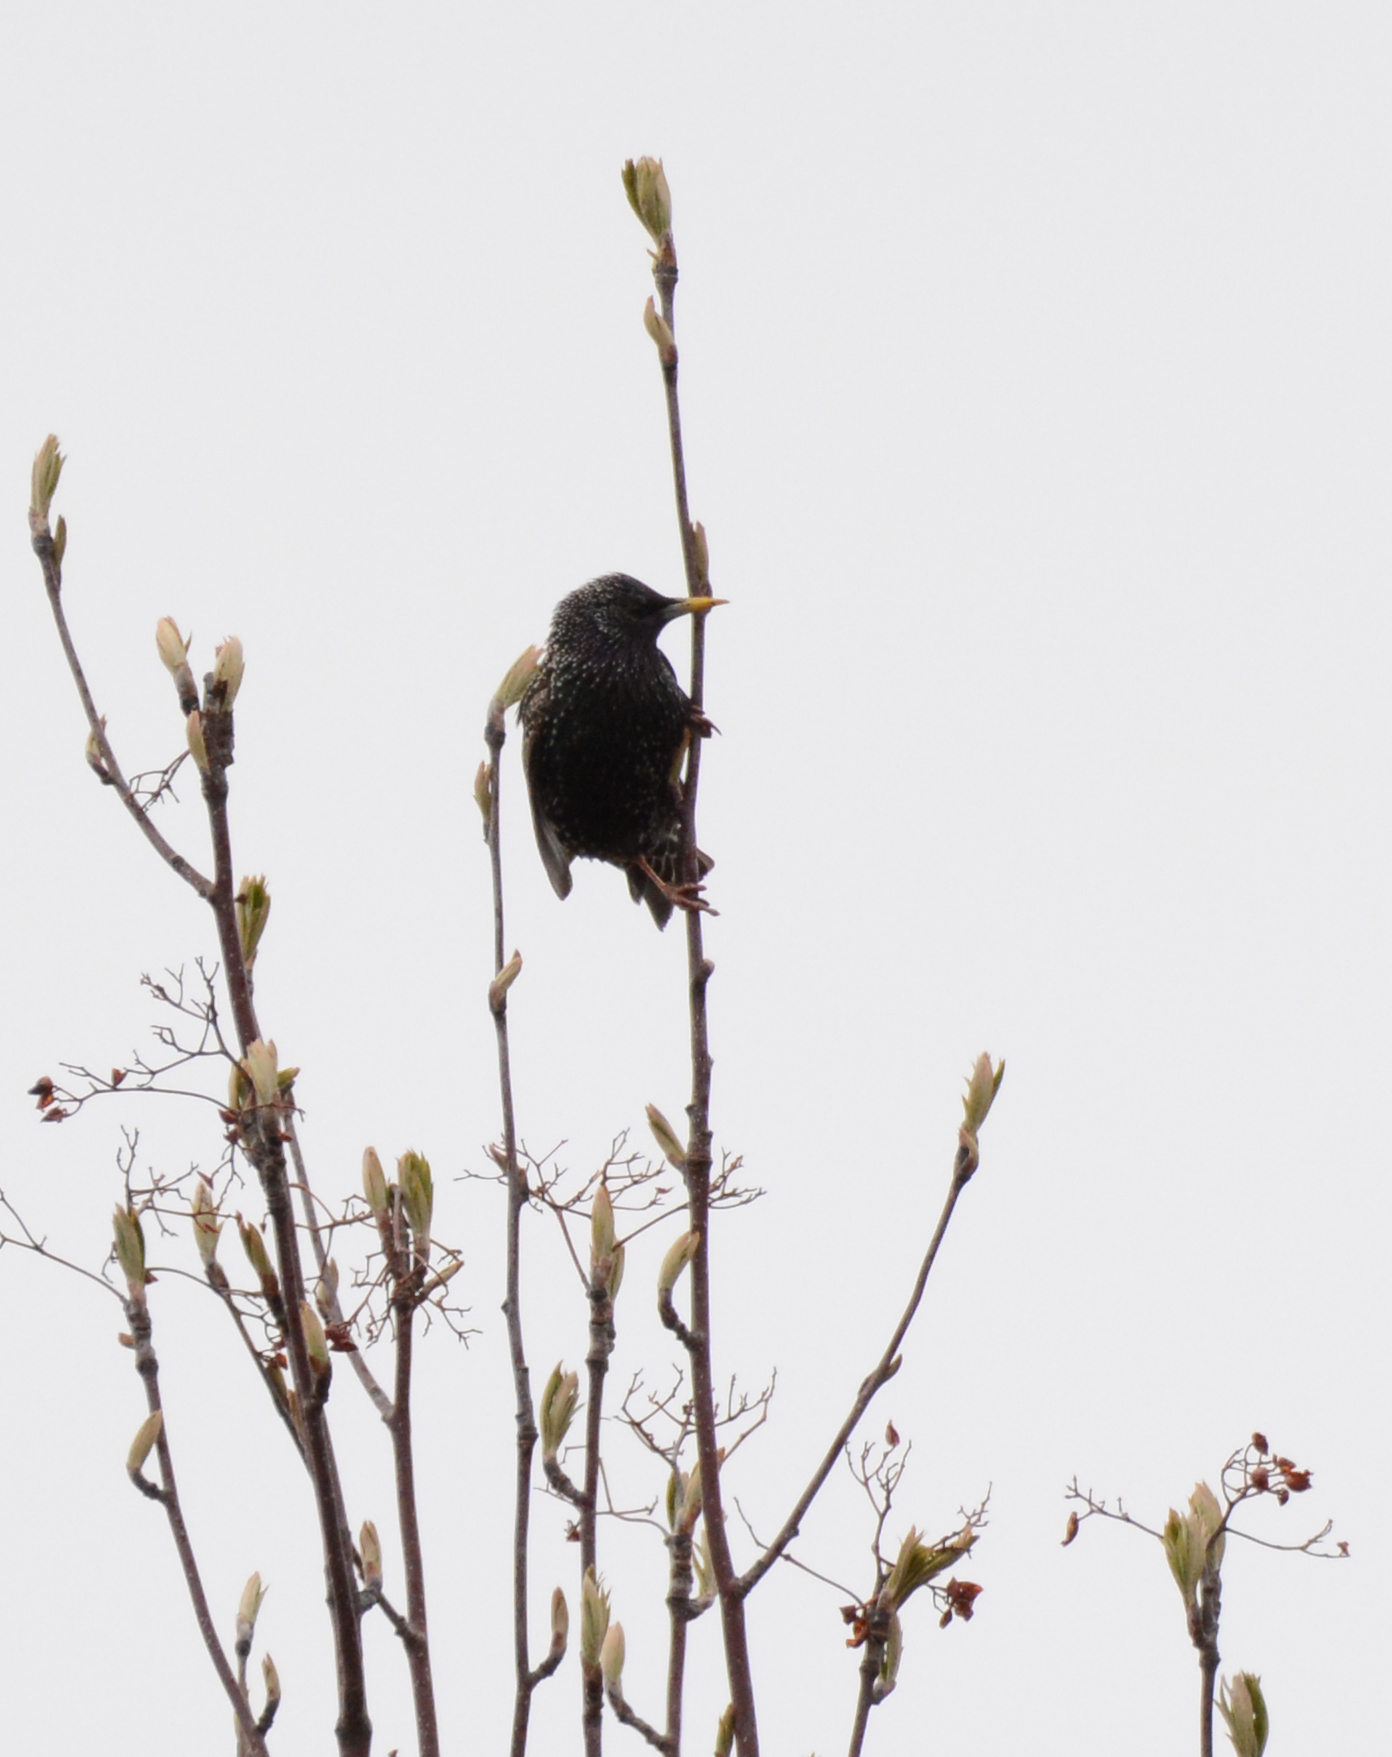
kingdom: Animalia
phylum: Chordata
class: Aves
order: Passeriformes
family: Sturnidae
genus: Sturnus
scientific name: Sturnus vulgaris
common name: Common starling
